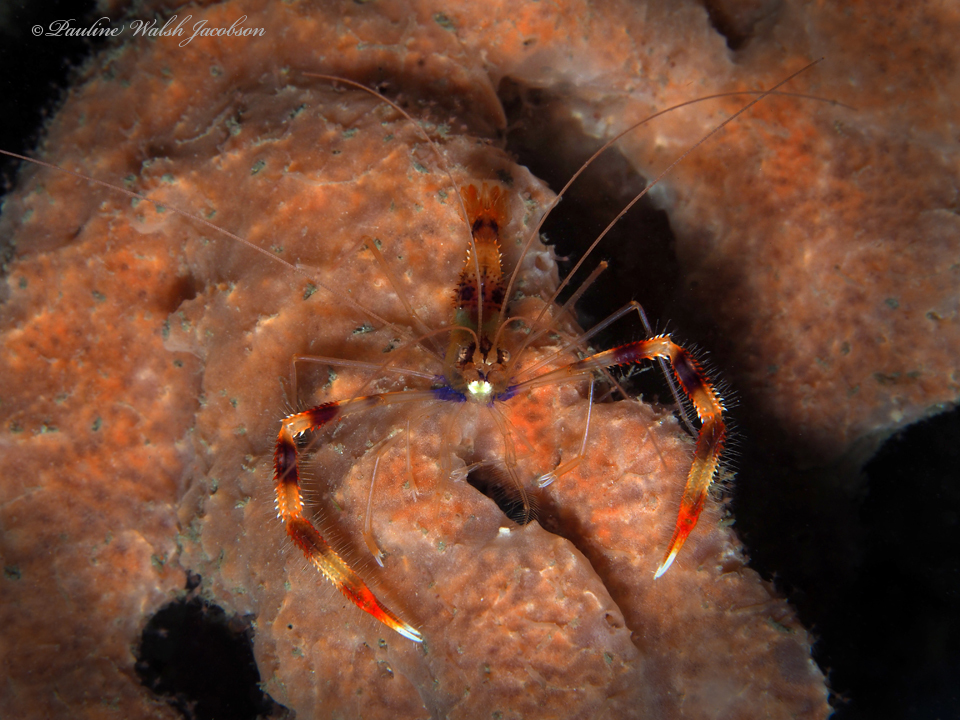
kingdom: Animalia
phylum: Arthropoda
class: Malacostraca
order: Decapoda
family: Stenopodidae
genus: Stenopus
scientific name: Stenopus hispidus
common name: Banded coral shrimp
